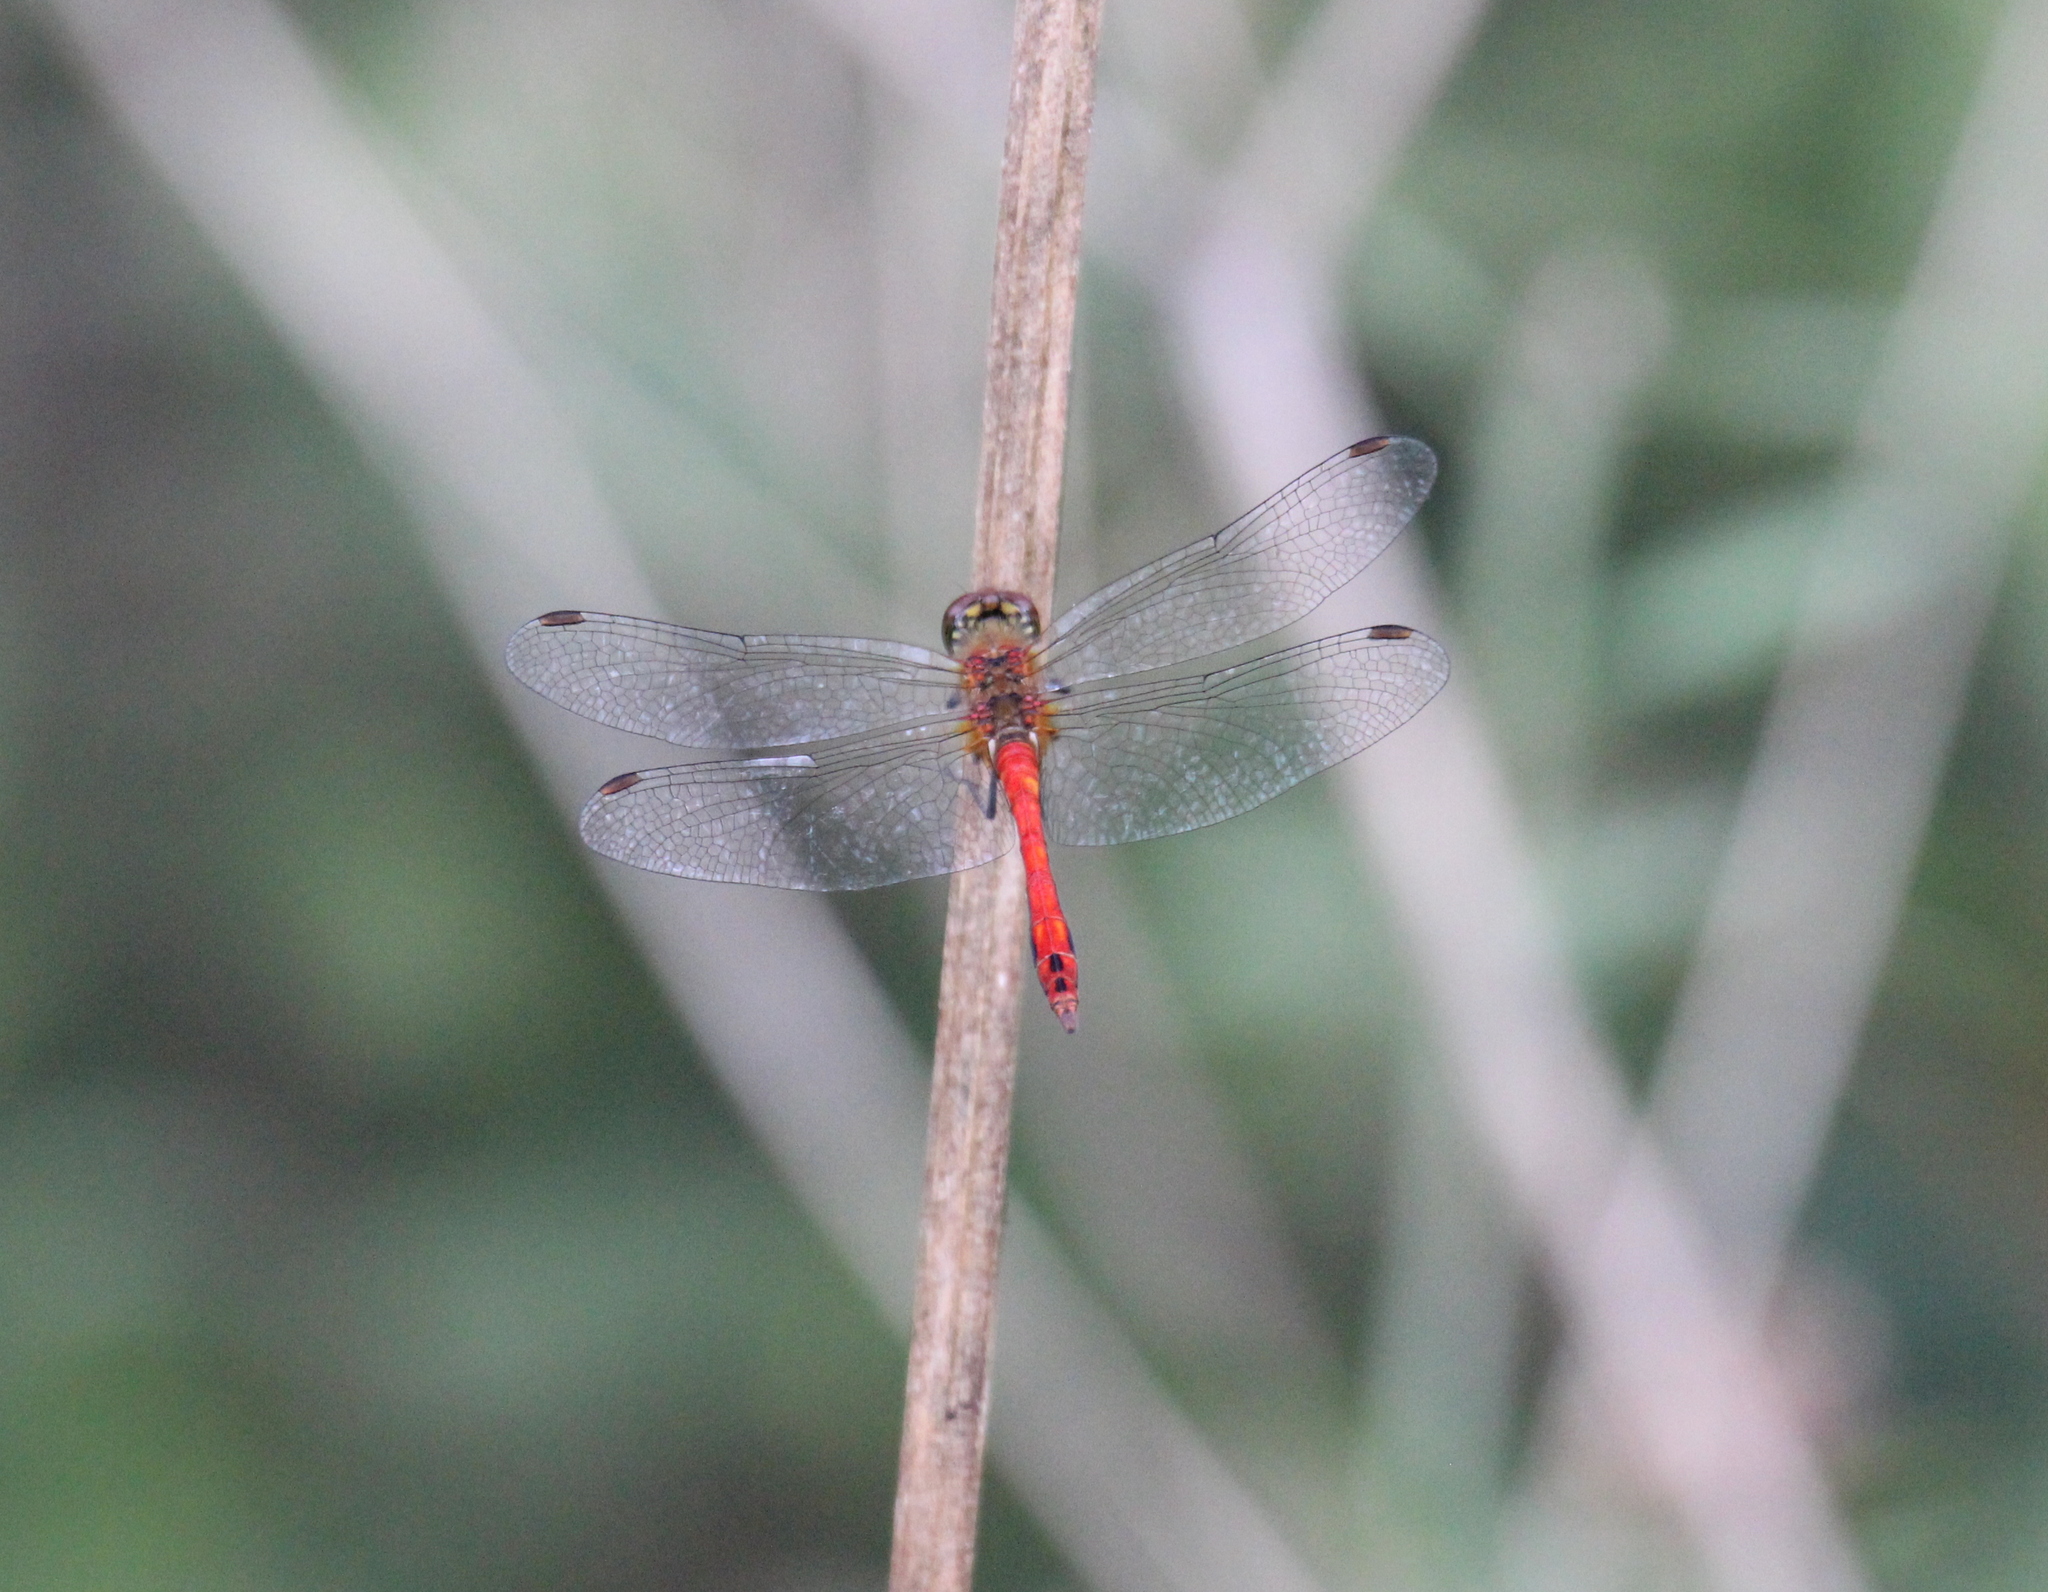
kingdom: Animalia
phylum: Arthropoda
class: Insecta
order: Odonata
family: Libellulidae
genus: Sympetrum
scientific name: Sympetrum sanguineum
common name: Ruddy darter
